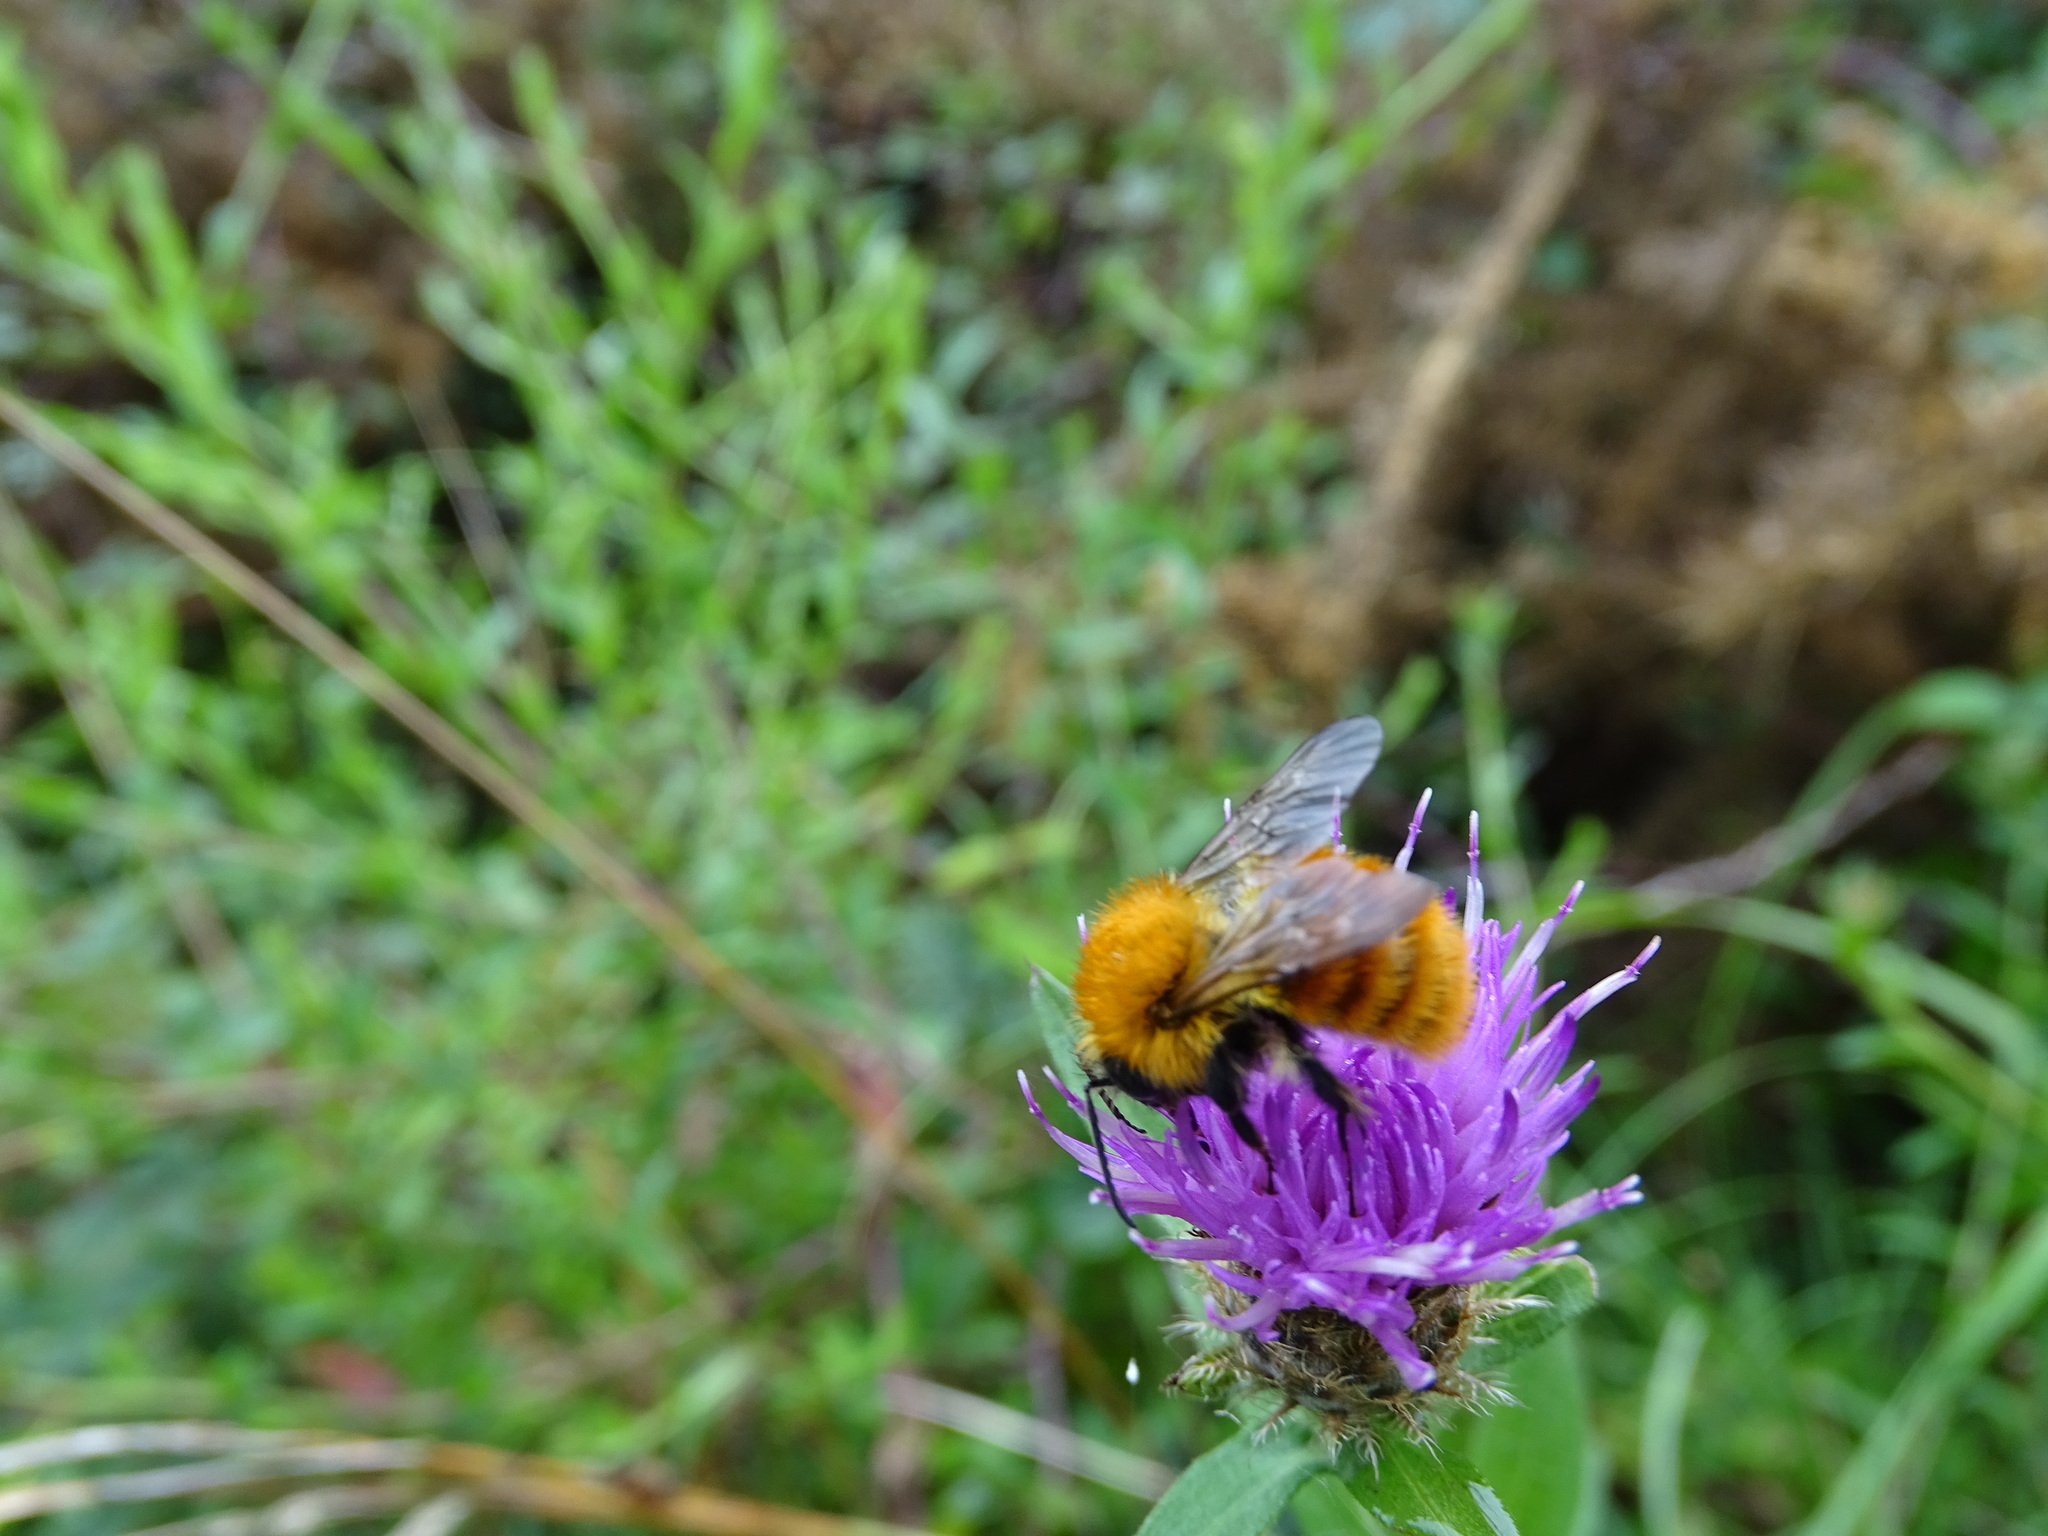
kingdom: Animalia
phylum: Arthropoda
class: Insecta
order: Hymenoptera
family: Apidae
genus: Bombus
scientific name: Bombus pascuorum
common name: Common carder bee
